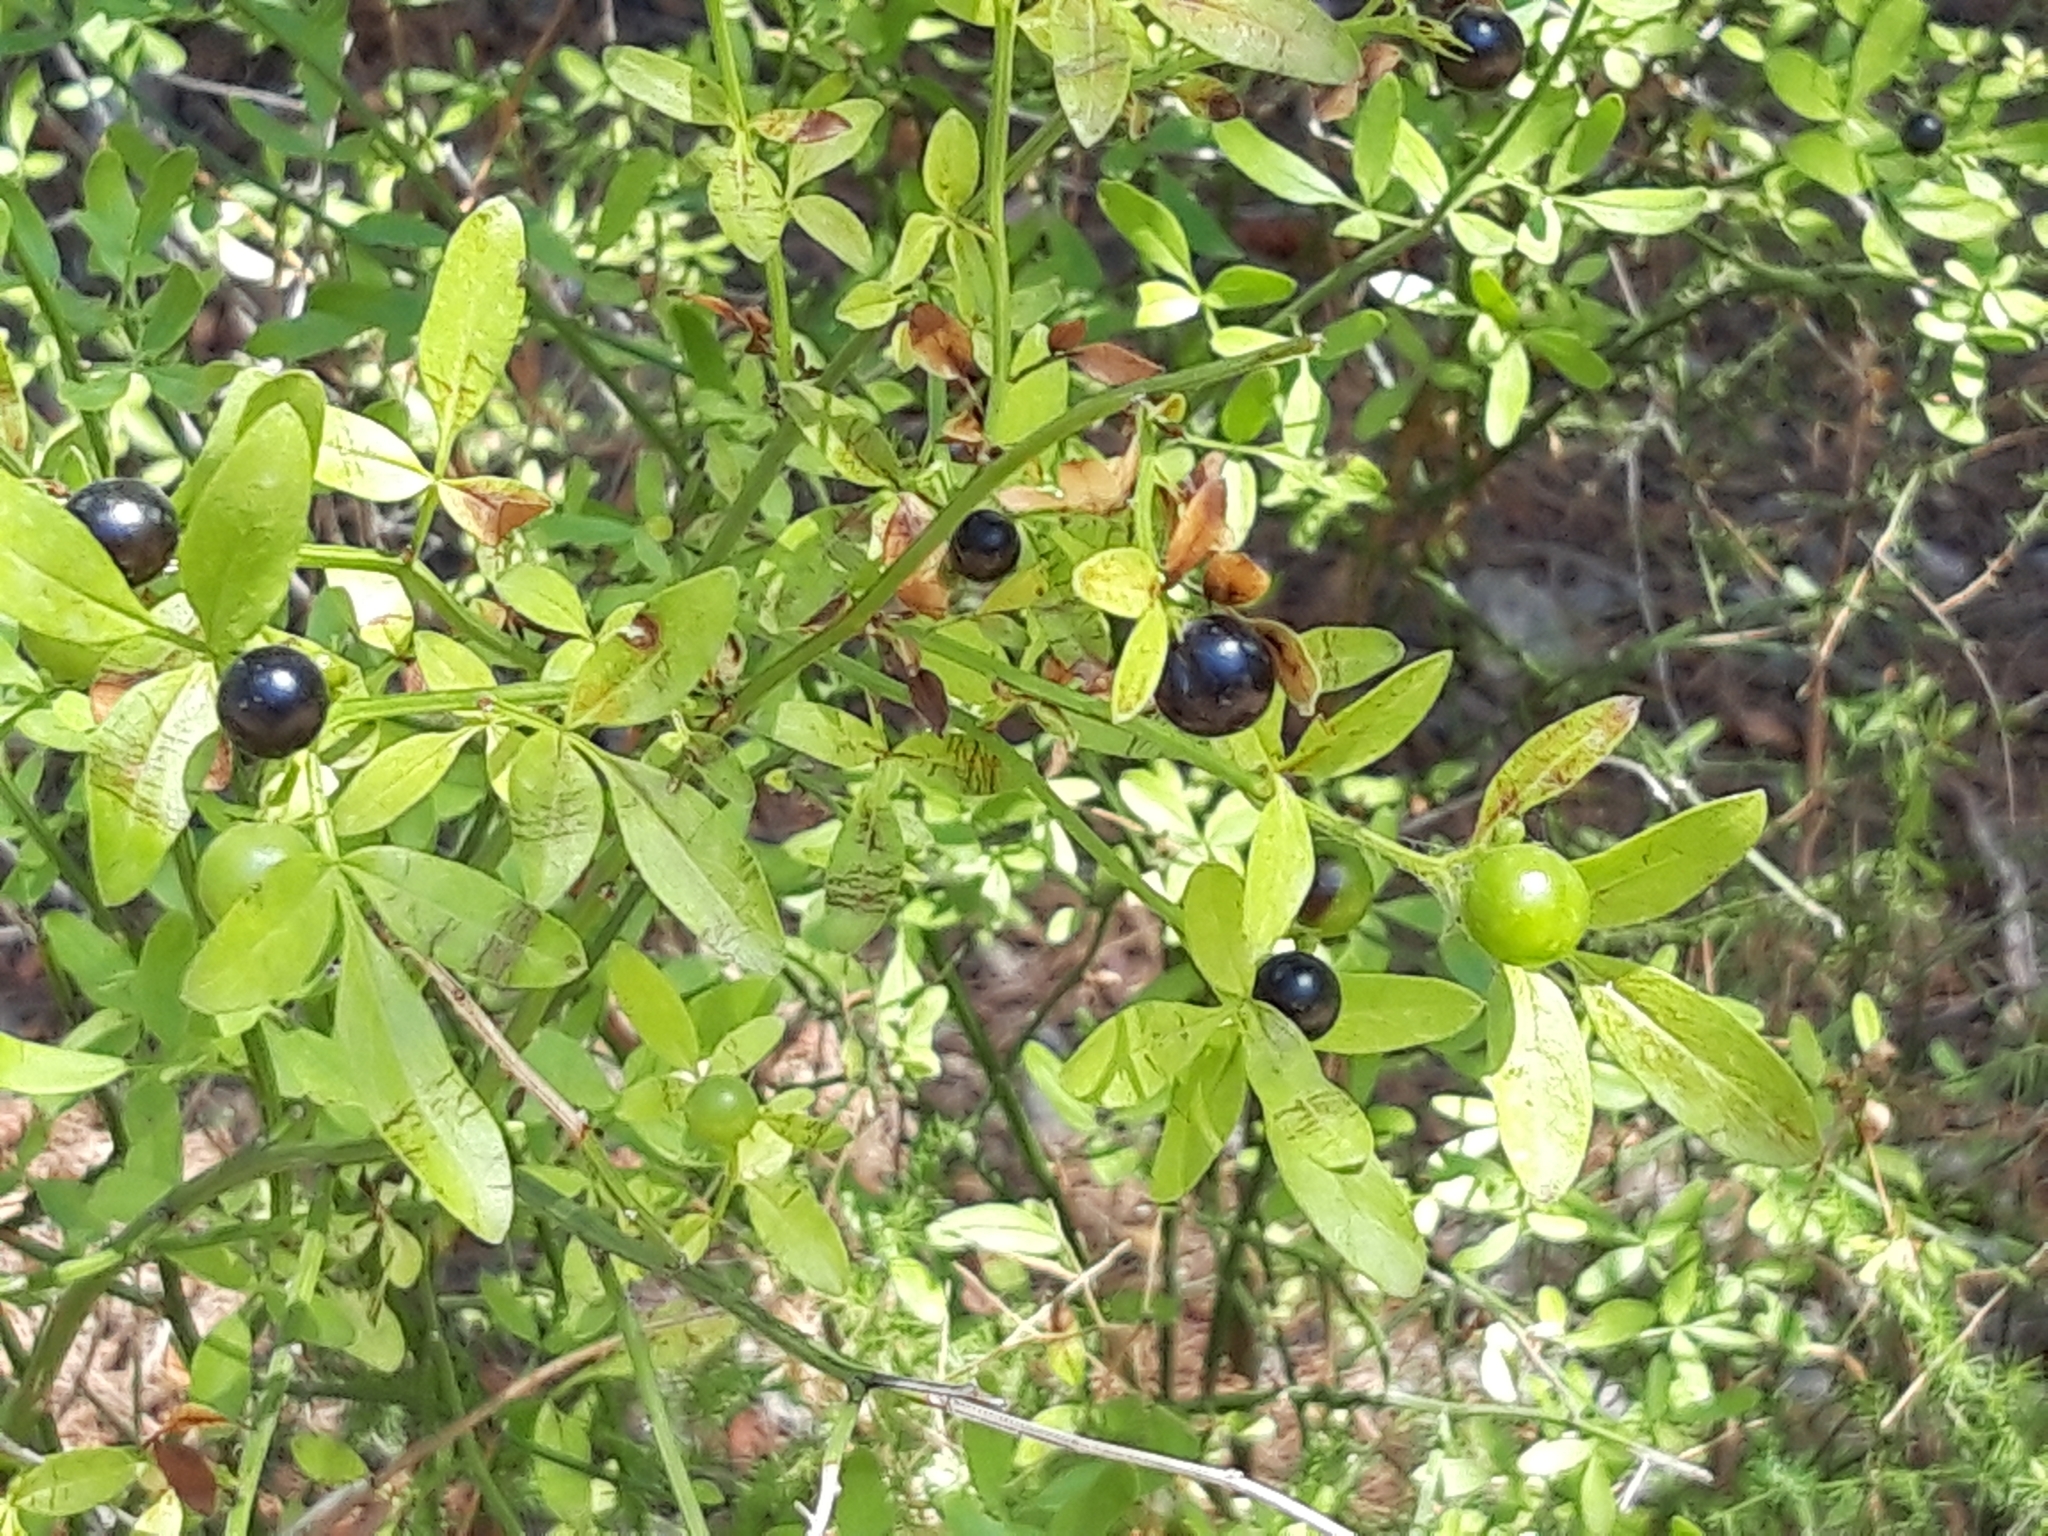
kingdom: Plantae
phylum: Tracheophyta
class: Magnoliopsida
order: Lamiales
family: Oleaceae
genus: Chrysojasminum
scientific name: Chrysojasminum fruticans
